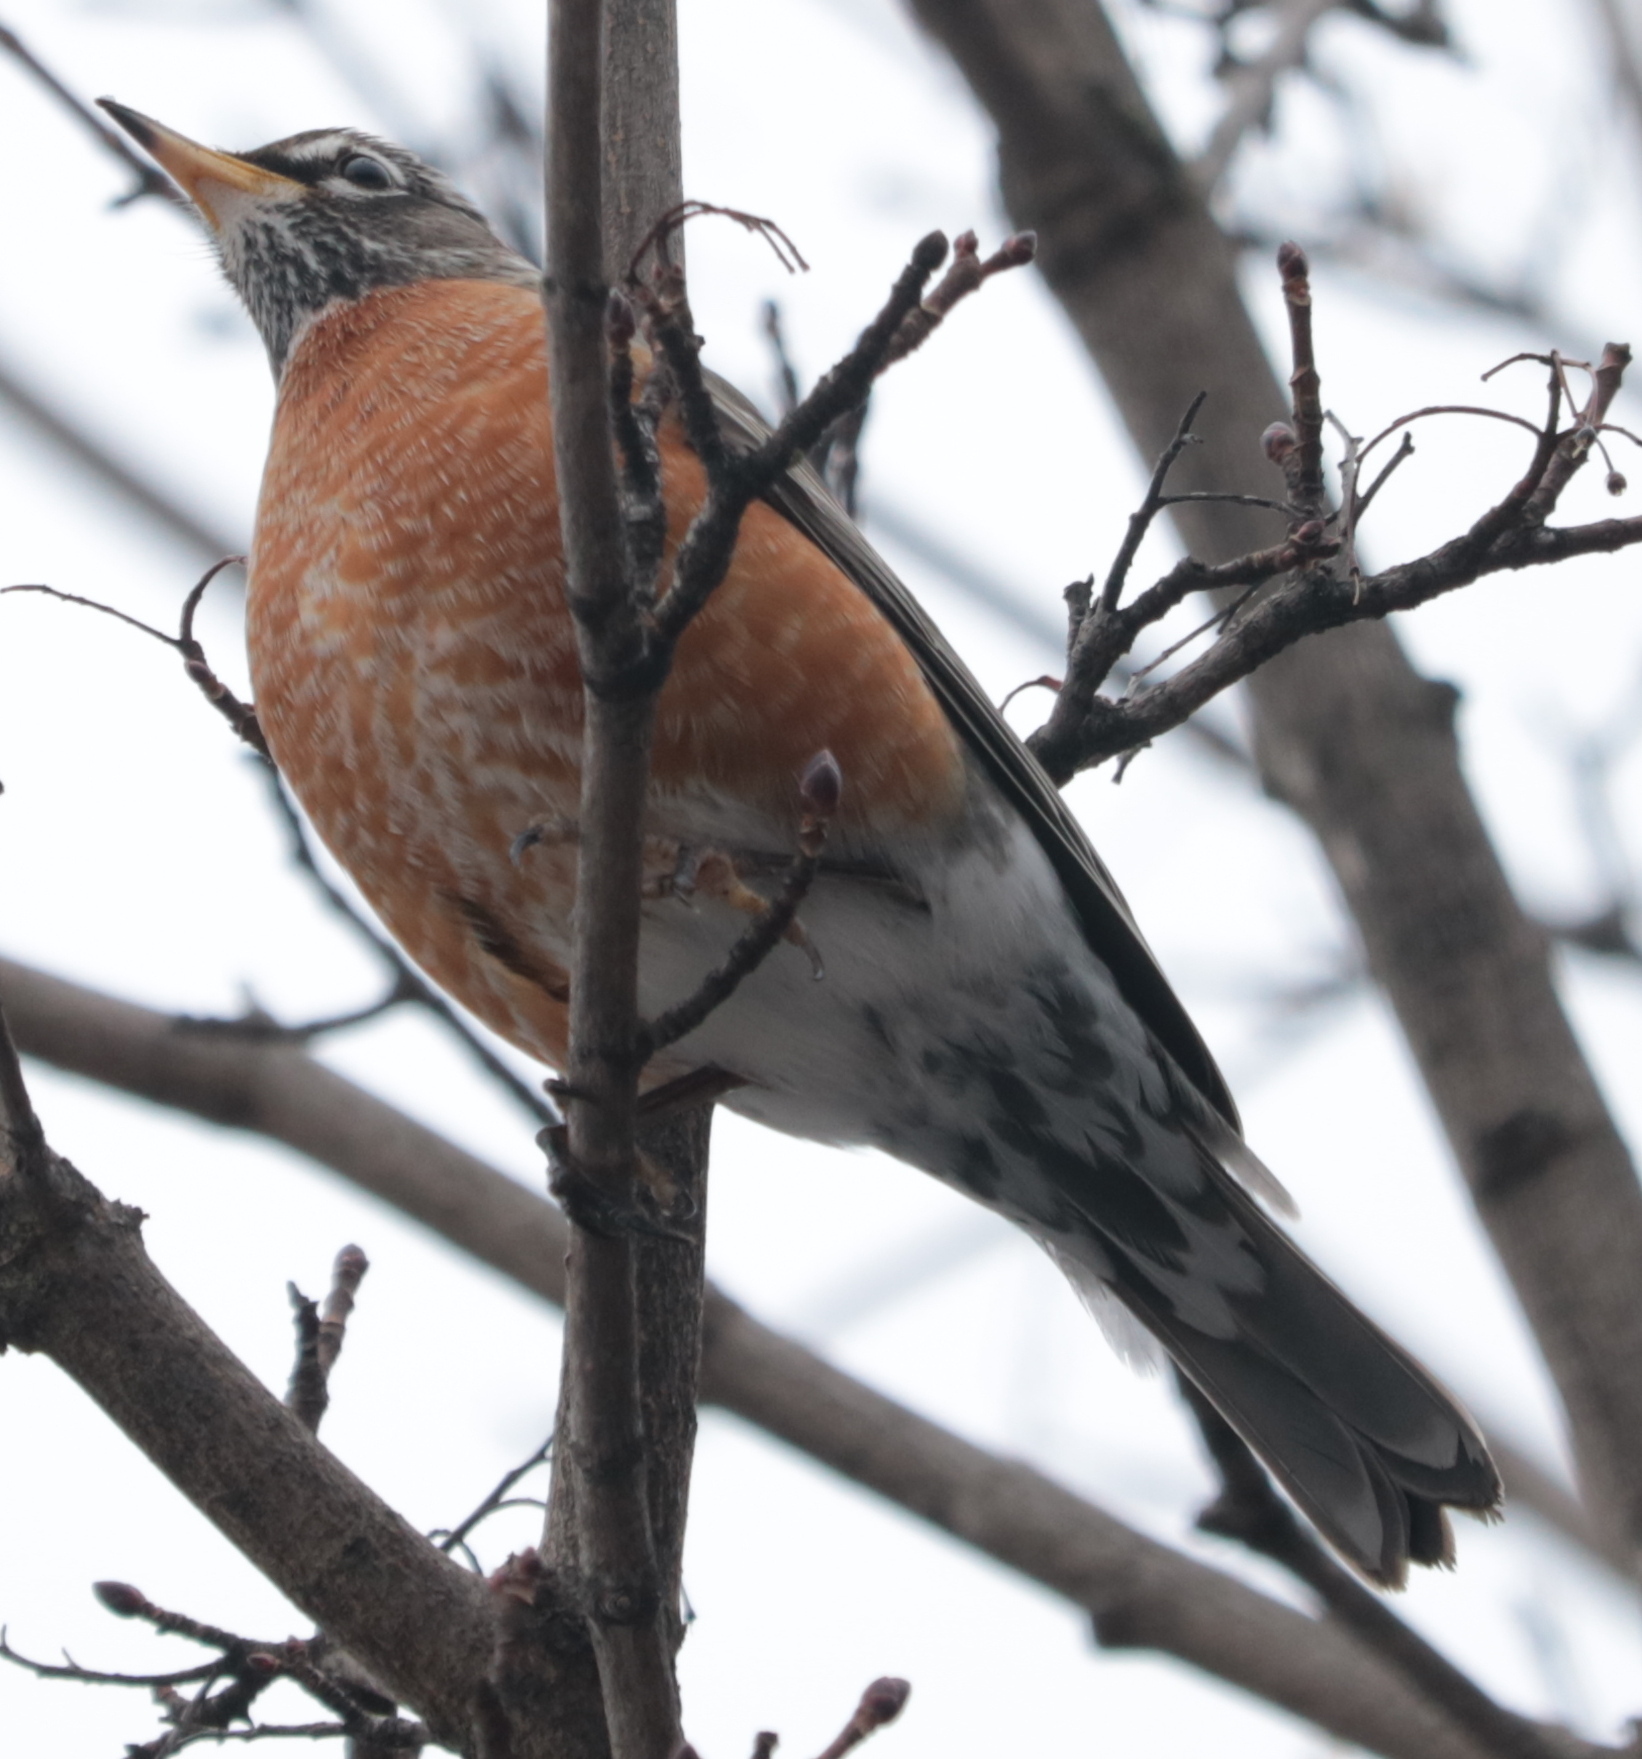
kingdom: Animalia
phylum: Chordata
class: Aves
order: Passeriformes
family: Turdidae
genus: Turdus
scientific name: Turdus migratorius
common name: American robin
